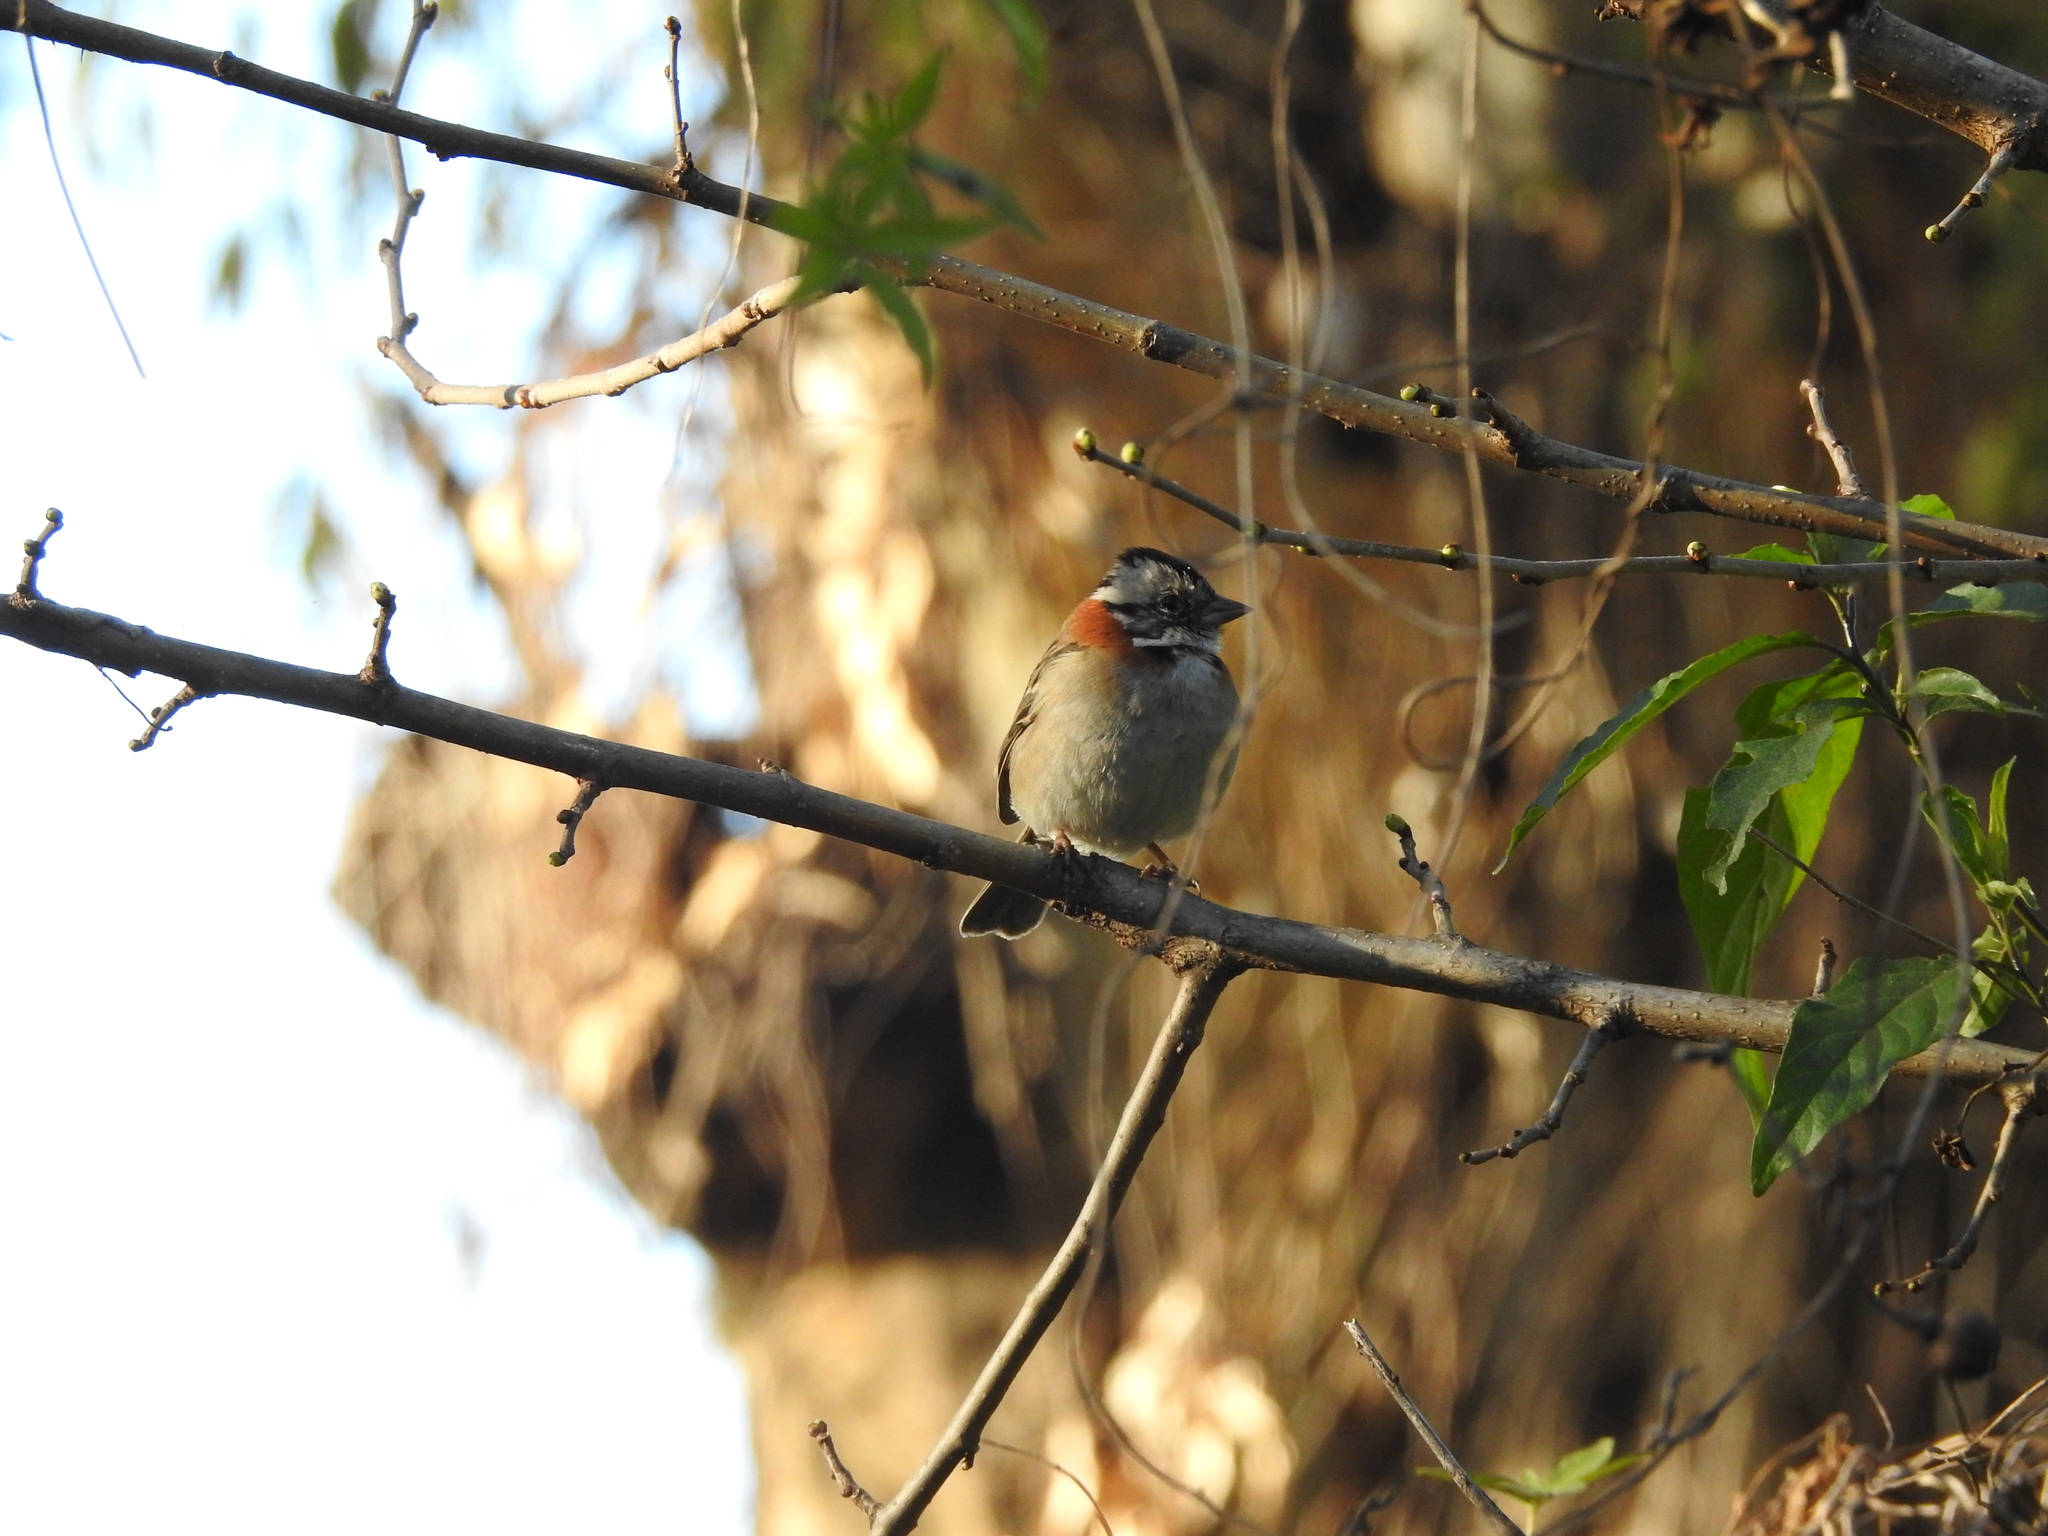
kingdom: Animalia
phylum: Chordata
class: Aves
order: Passeriformes
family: Passerellidae
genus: Zonotrichia
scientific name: Zonotrichia capensis
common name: Rufous-collared sparrow
